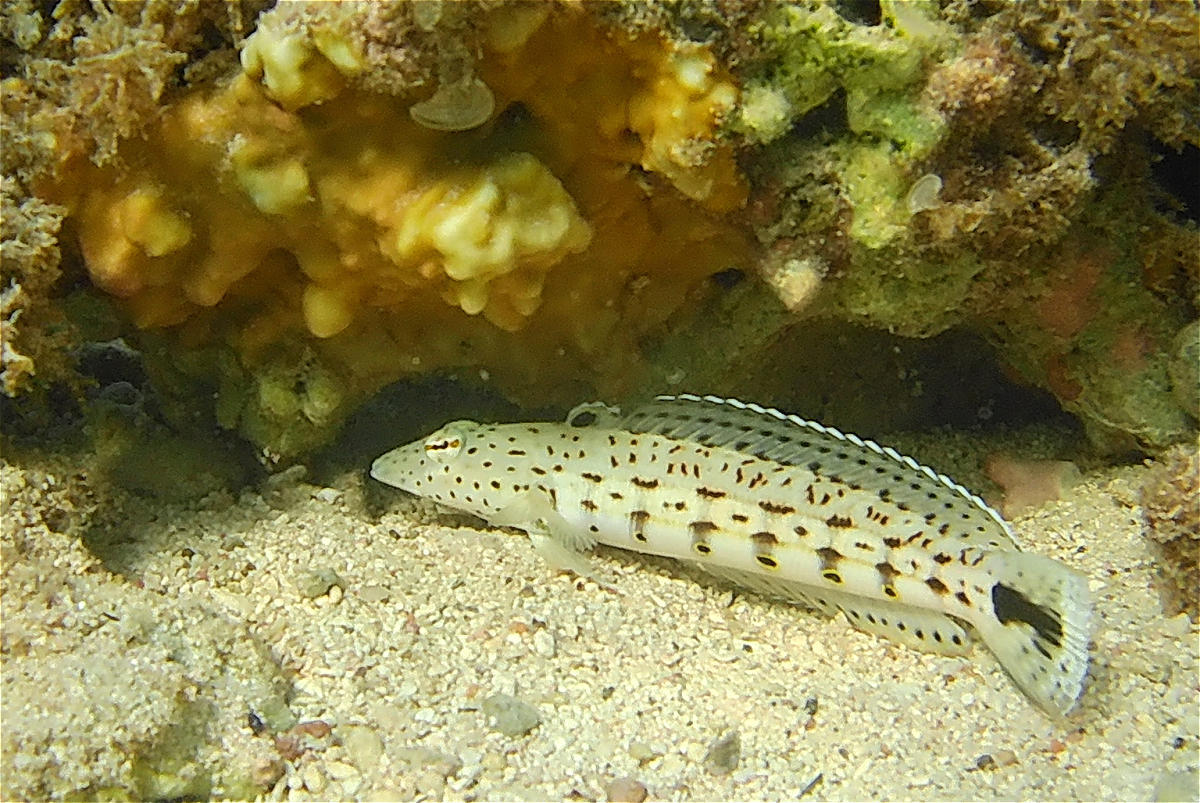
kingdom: Animalia
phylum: Chordata
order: Perciformes
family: Pinguipedidae
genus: Parapercis
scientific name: Parapercis hexophtalma
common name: Speckled sandperch
